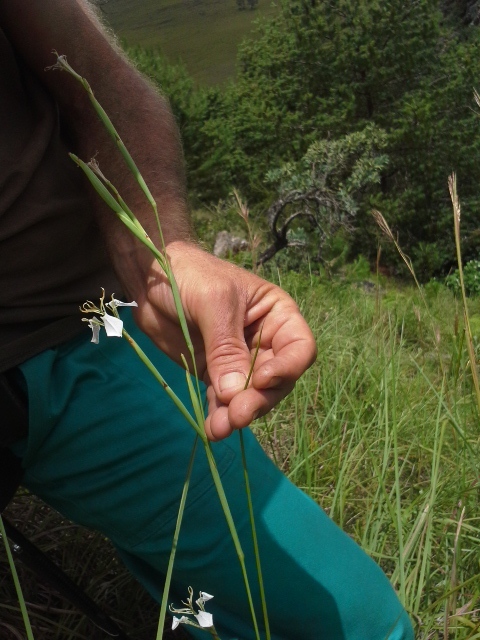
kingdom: Plantae
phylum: Tracheophyta
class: Liliopsida
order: Asparagales
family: Iridaceae
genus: Moraea
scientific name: Moraea pubiflora
